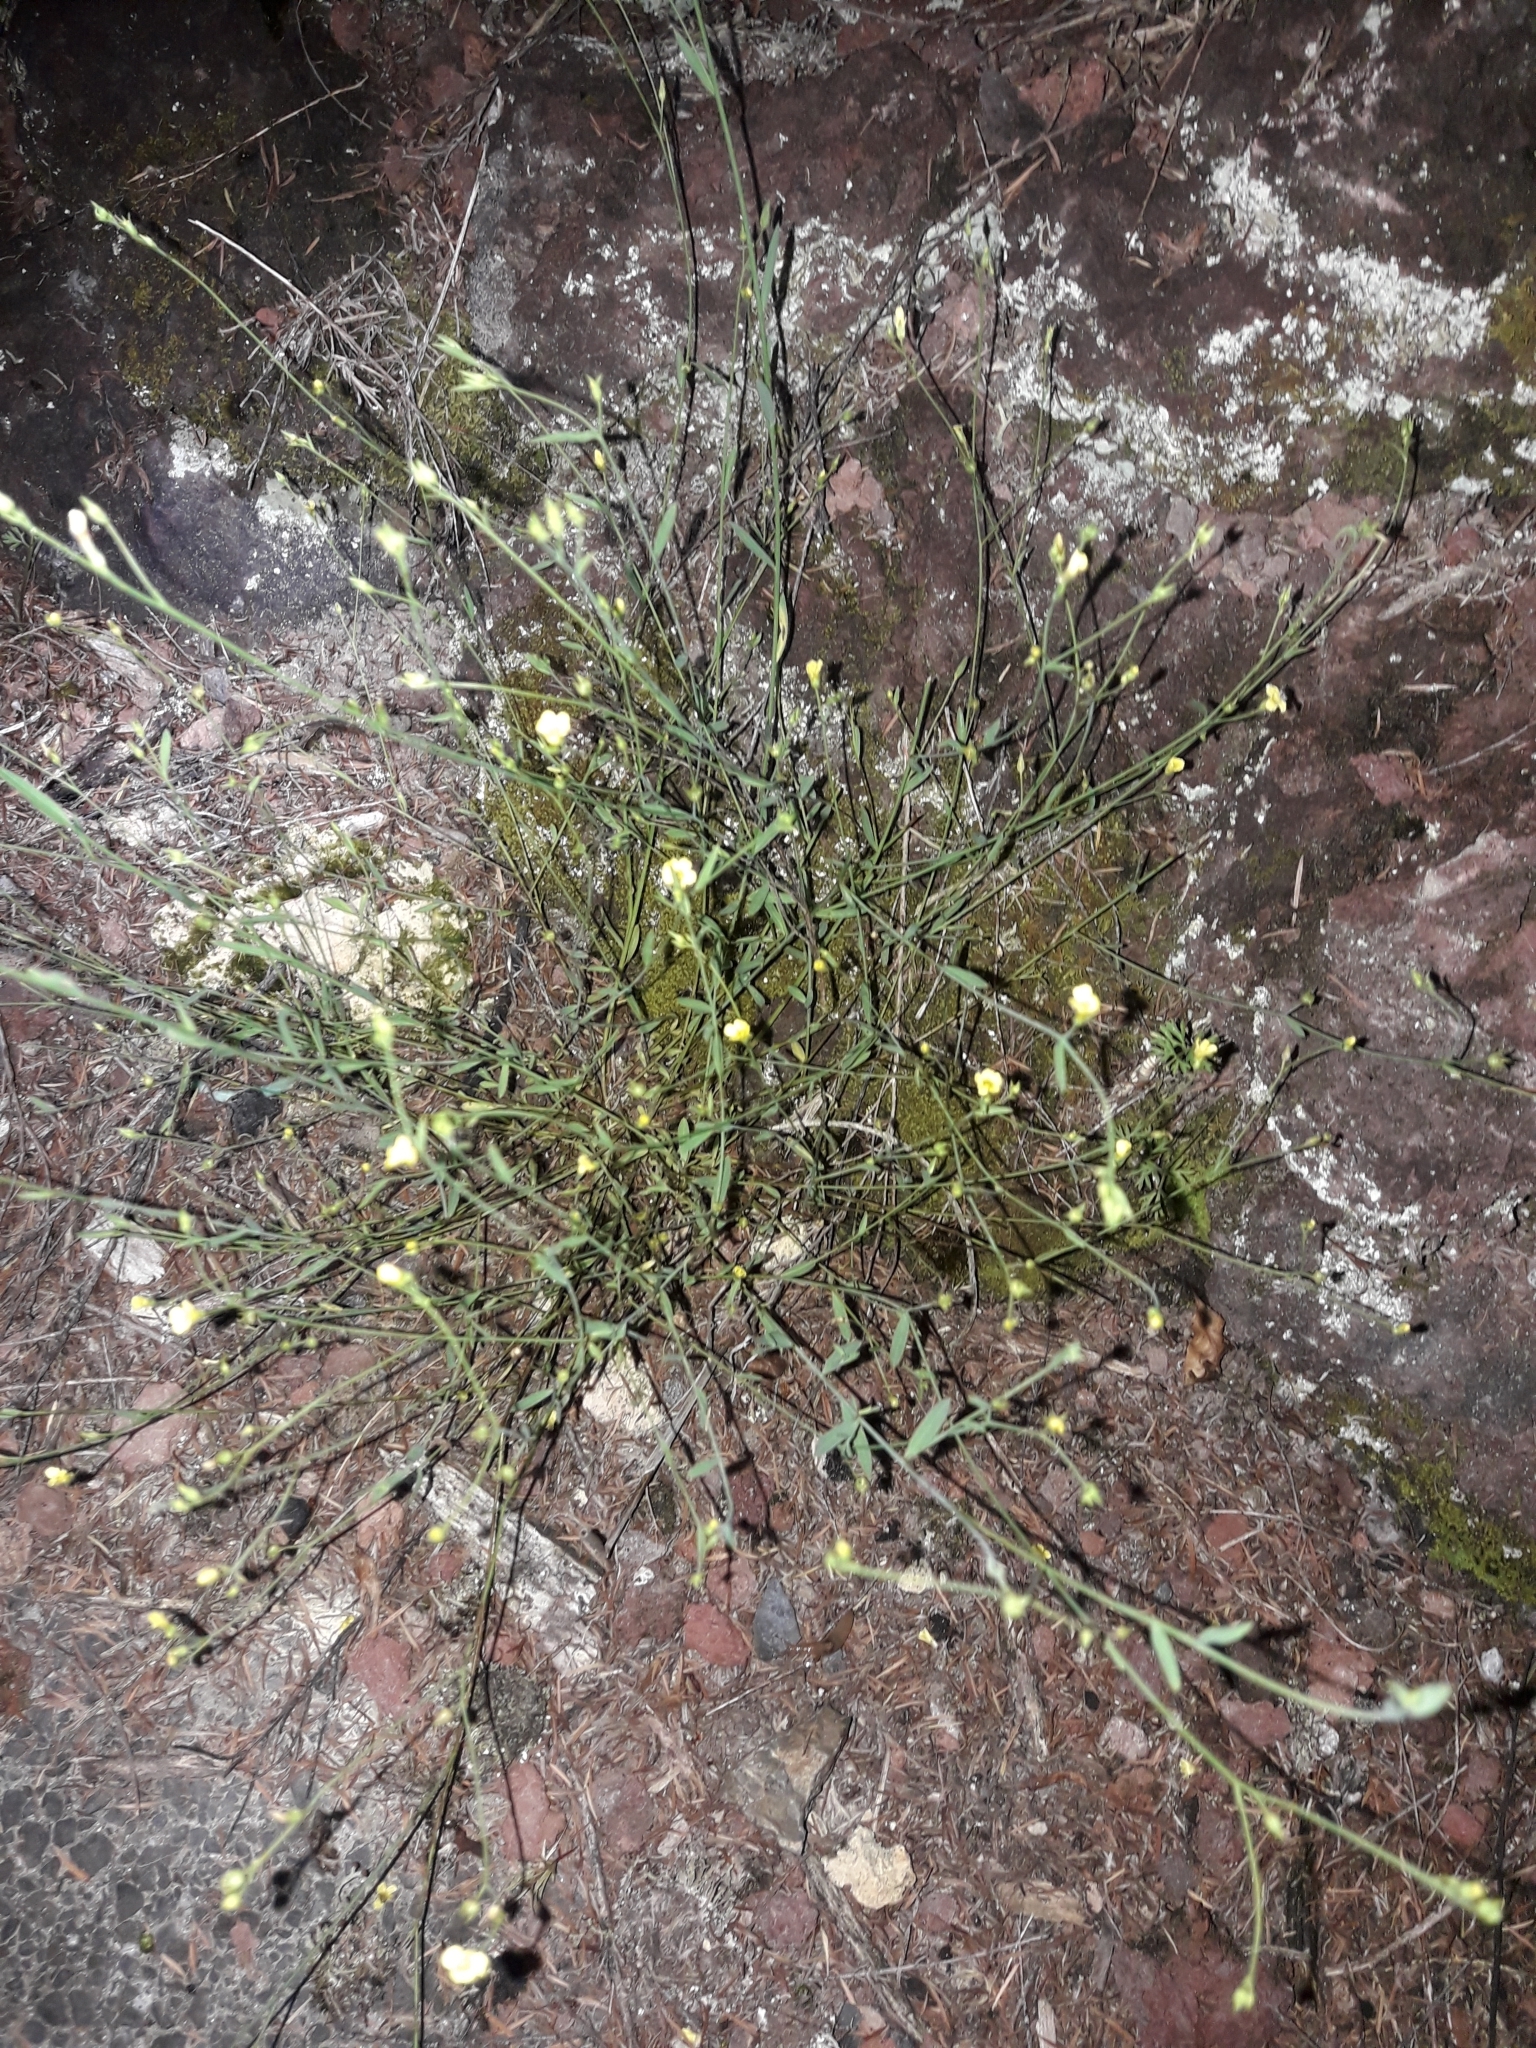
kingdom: Plantae
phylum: Tracheophyta
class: Magnoliopsida
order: Malpighiales
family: Linaceae
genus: Linum
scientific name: Linum trigynum
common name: French flax
